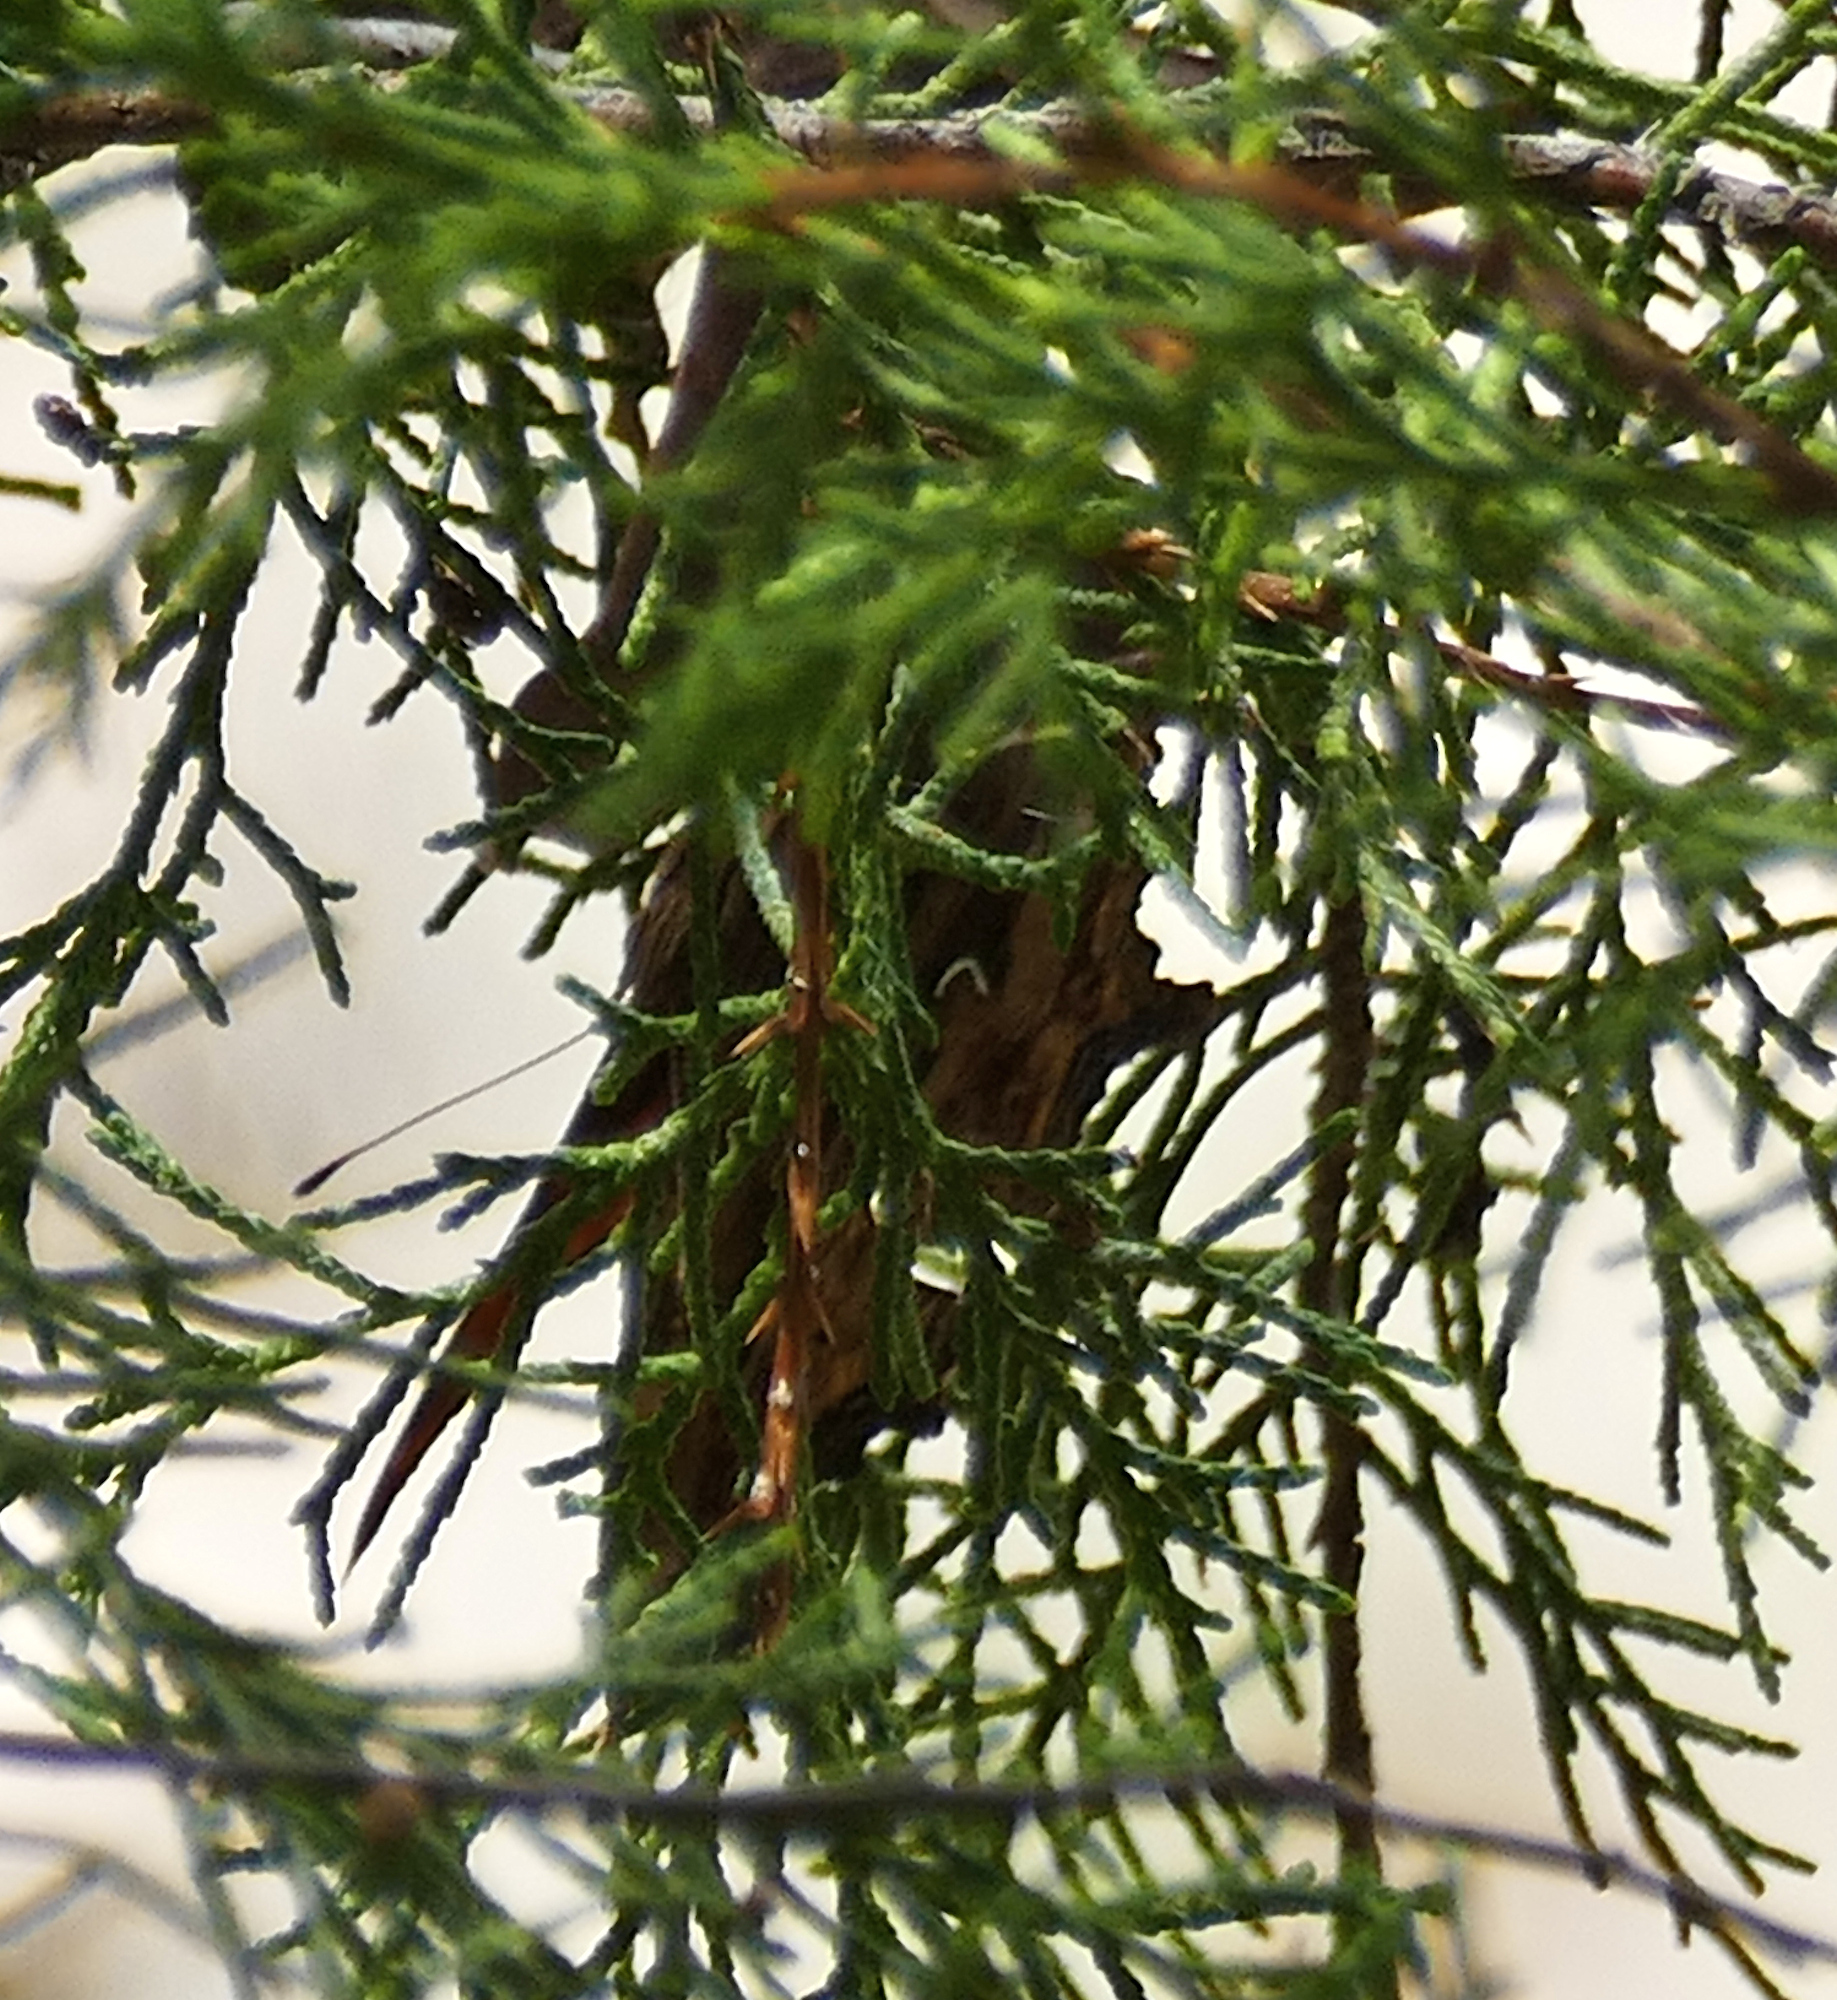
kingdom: Animalia
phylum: Arthropoda
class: Insecta
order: Lepidoptera
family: Nymphalidae
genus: Polygonia
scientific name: Polygonia satyrus
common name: Satyr angle wing
